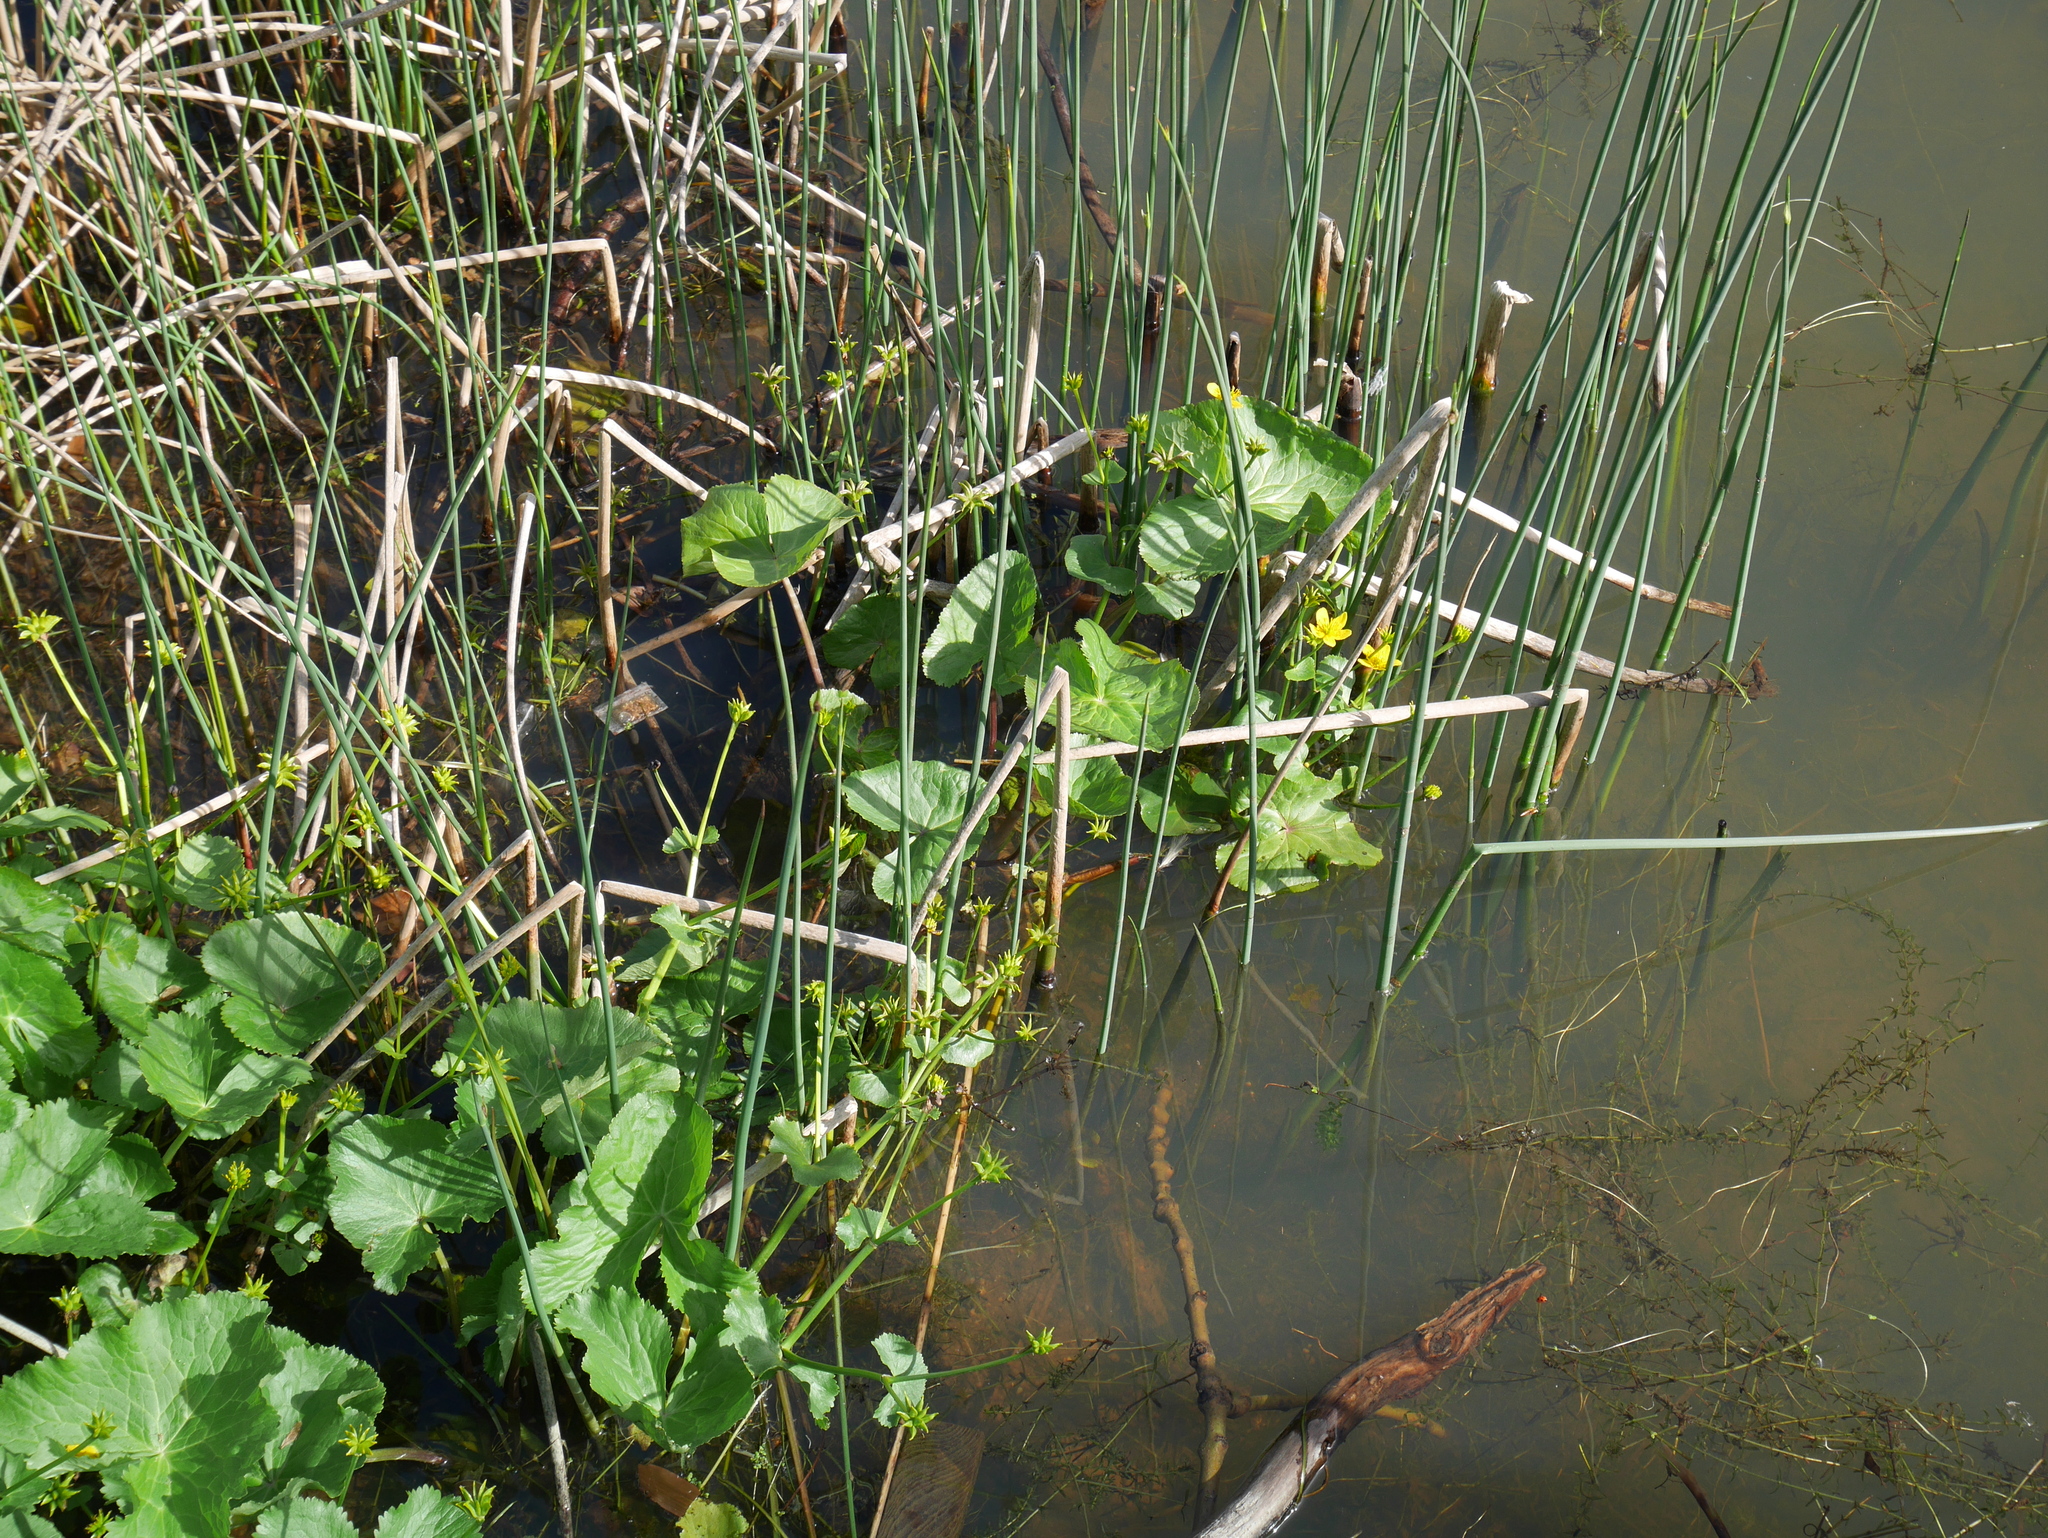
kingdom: Plantae
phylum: Tracheophyta
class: Magnoliopsida
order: Ranunculales
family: Ranunculaceae
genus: Caltha
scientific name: Caltha palustris
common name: Marsh marigold
